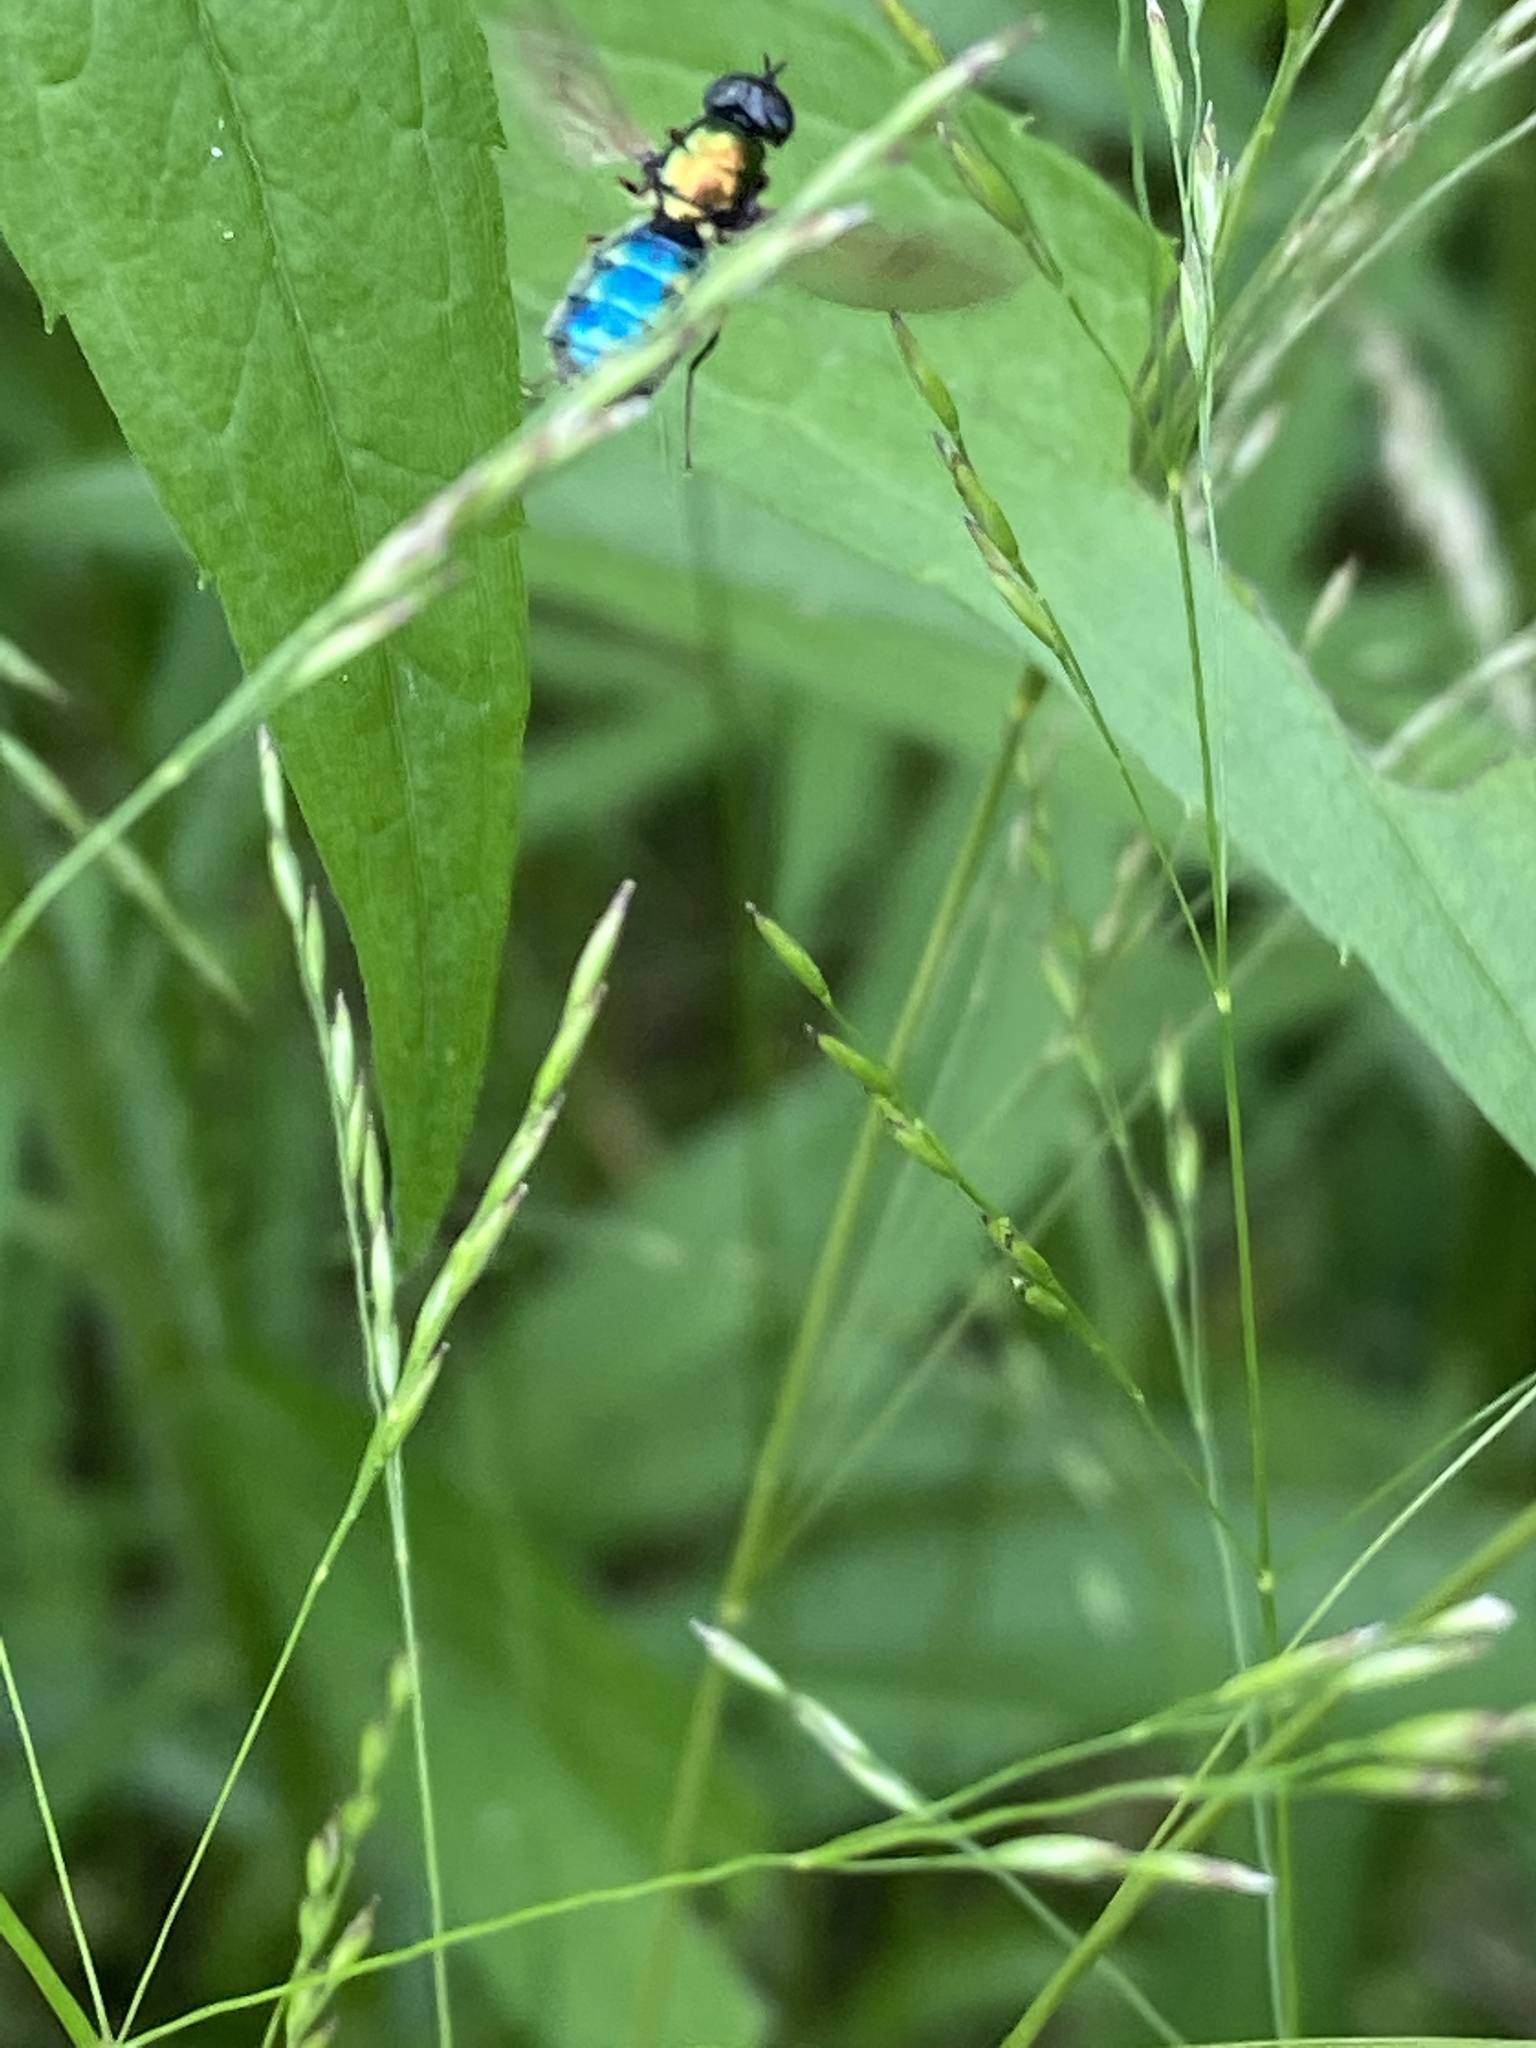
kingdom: Animalia
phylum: Arthropoda
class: Insecta
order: Diptera
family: Stratiomyidae
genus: Chloromyia
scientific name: Chloromyia formosa
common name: Soldier fly
